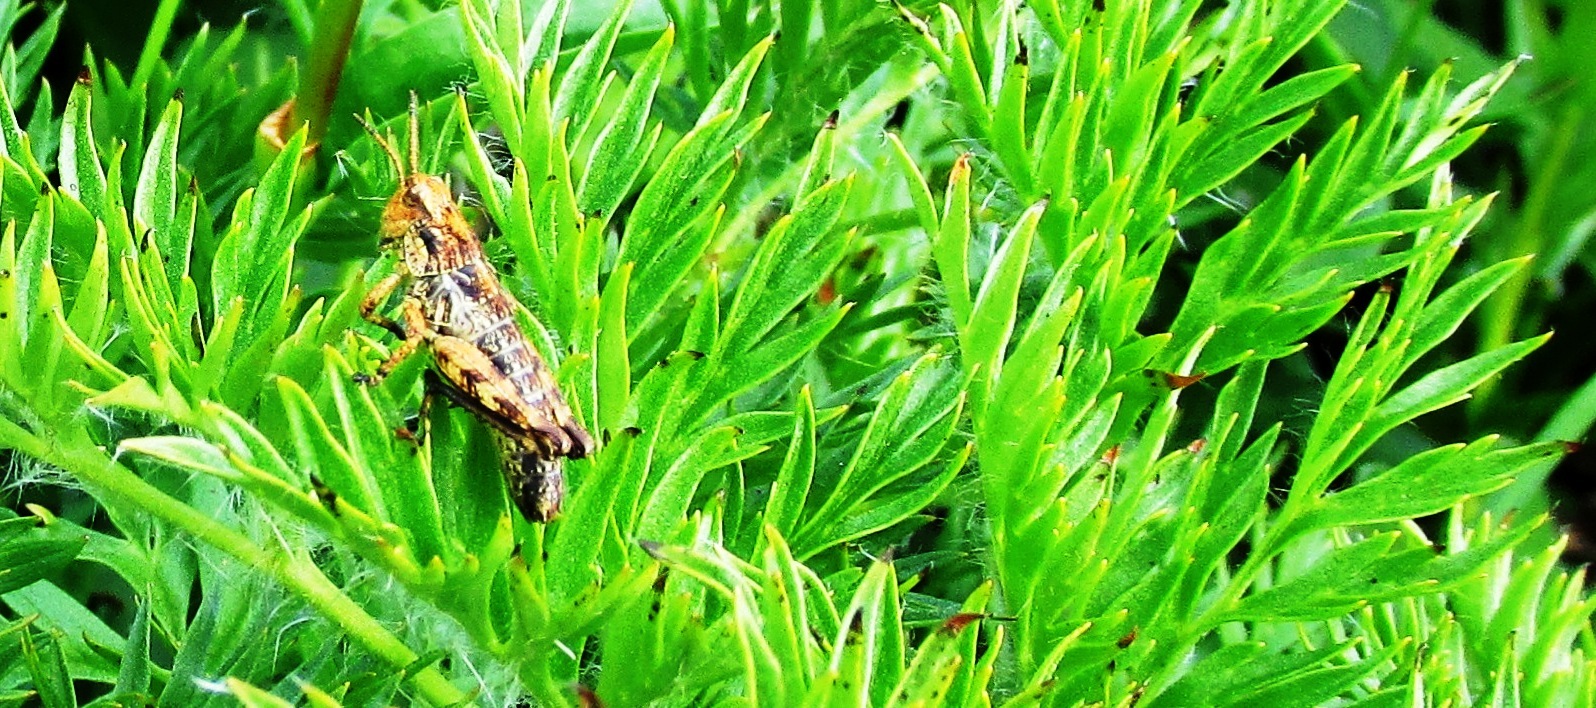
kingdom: Plantae
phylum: Tracheophyta
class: Magnoliopsida
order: Ranunculales
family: Ranunculaceae
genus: Pulsatilla
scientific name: Pulsatilla occidentalis
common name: Mountain pasqueflower
